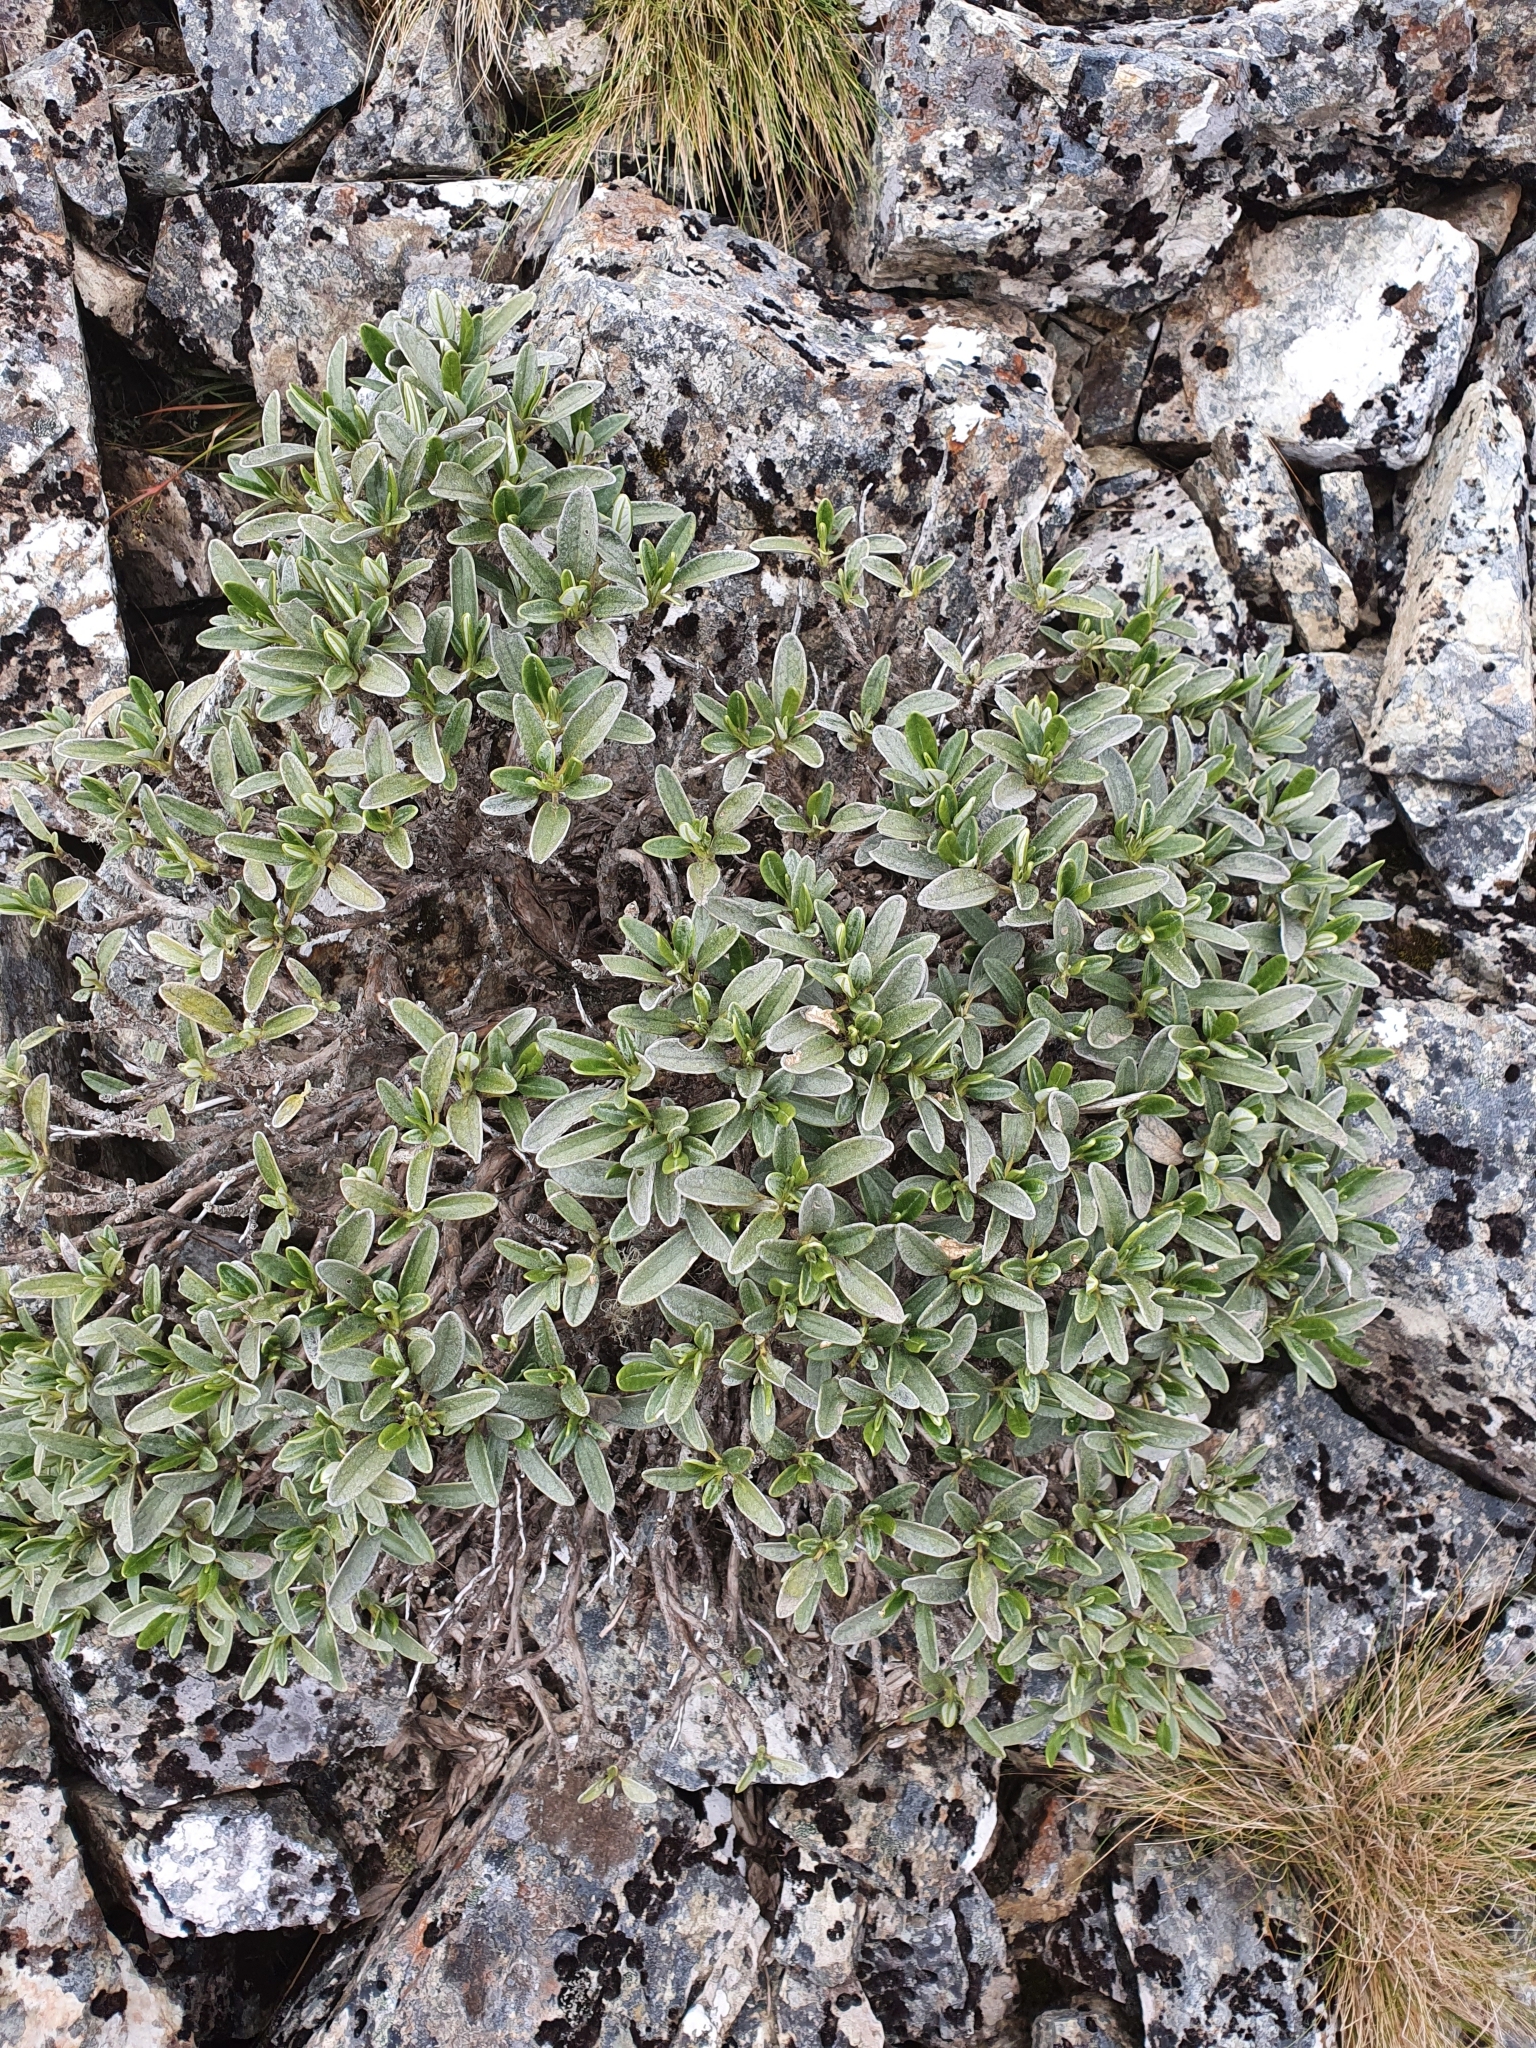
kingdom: Plantae
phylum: Tracheophyta
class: Magnoliopsida
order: Asterales
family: Asteraceae
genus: Brachyglottis
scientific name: Brachyglottis adamsii
